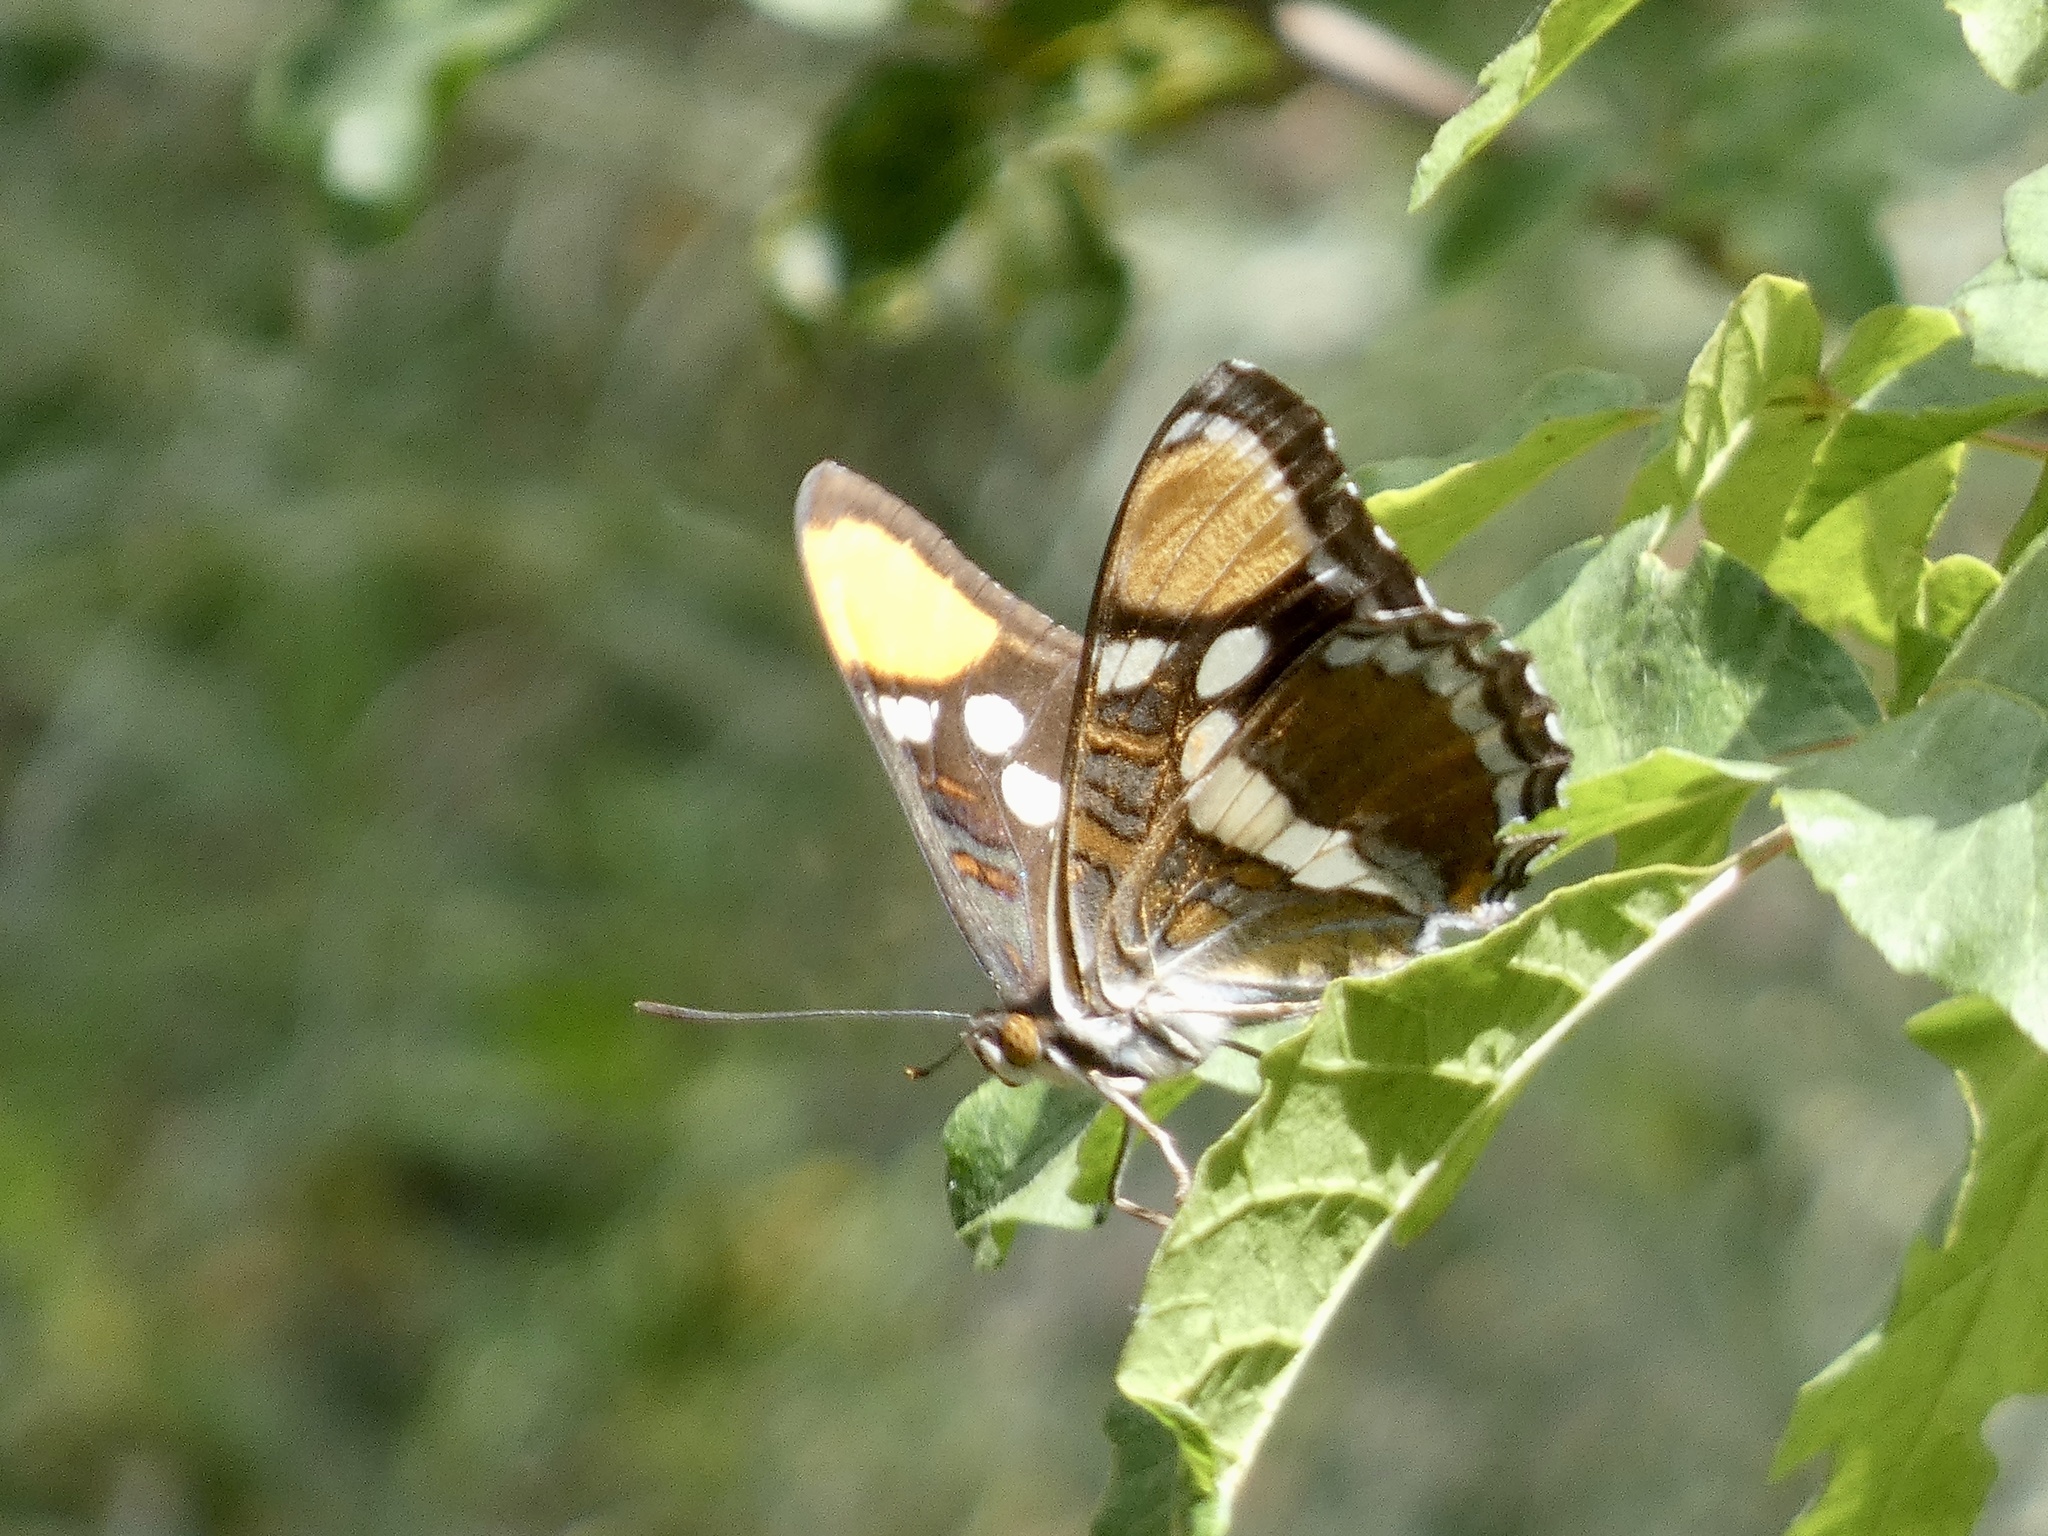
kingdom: Animalia
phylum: Arthropoda
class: Insecta
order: Lepidoptera
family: Nymphalidae
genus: Limenitis
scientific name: Limenitis bredowii
